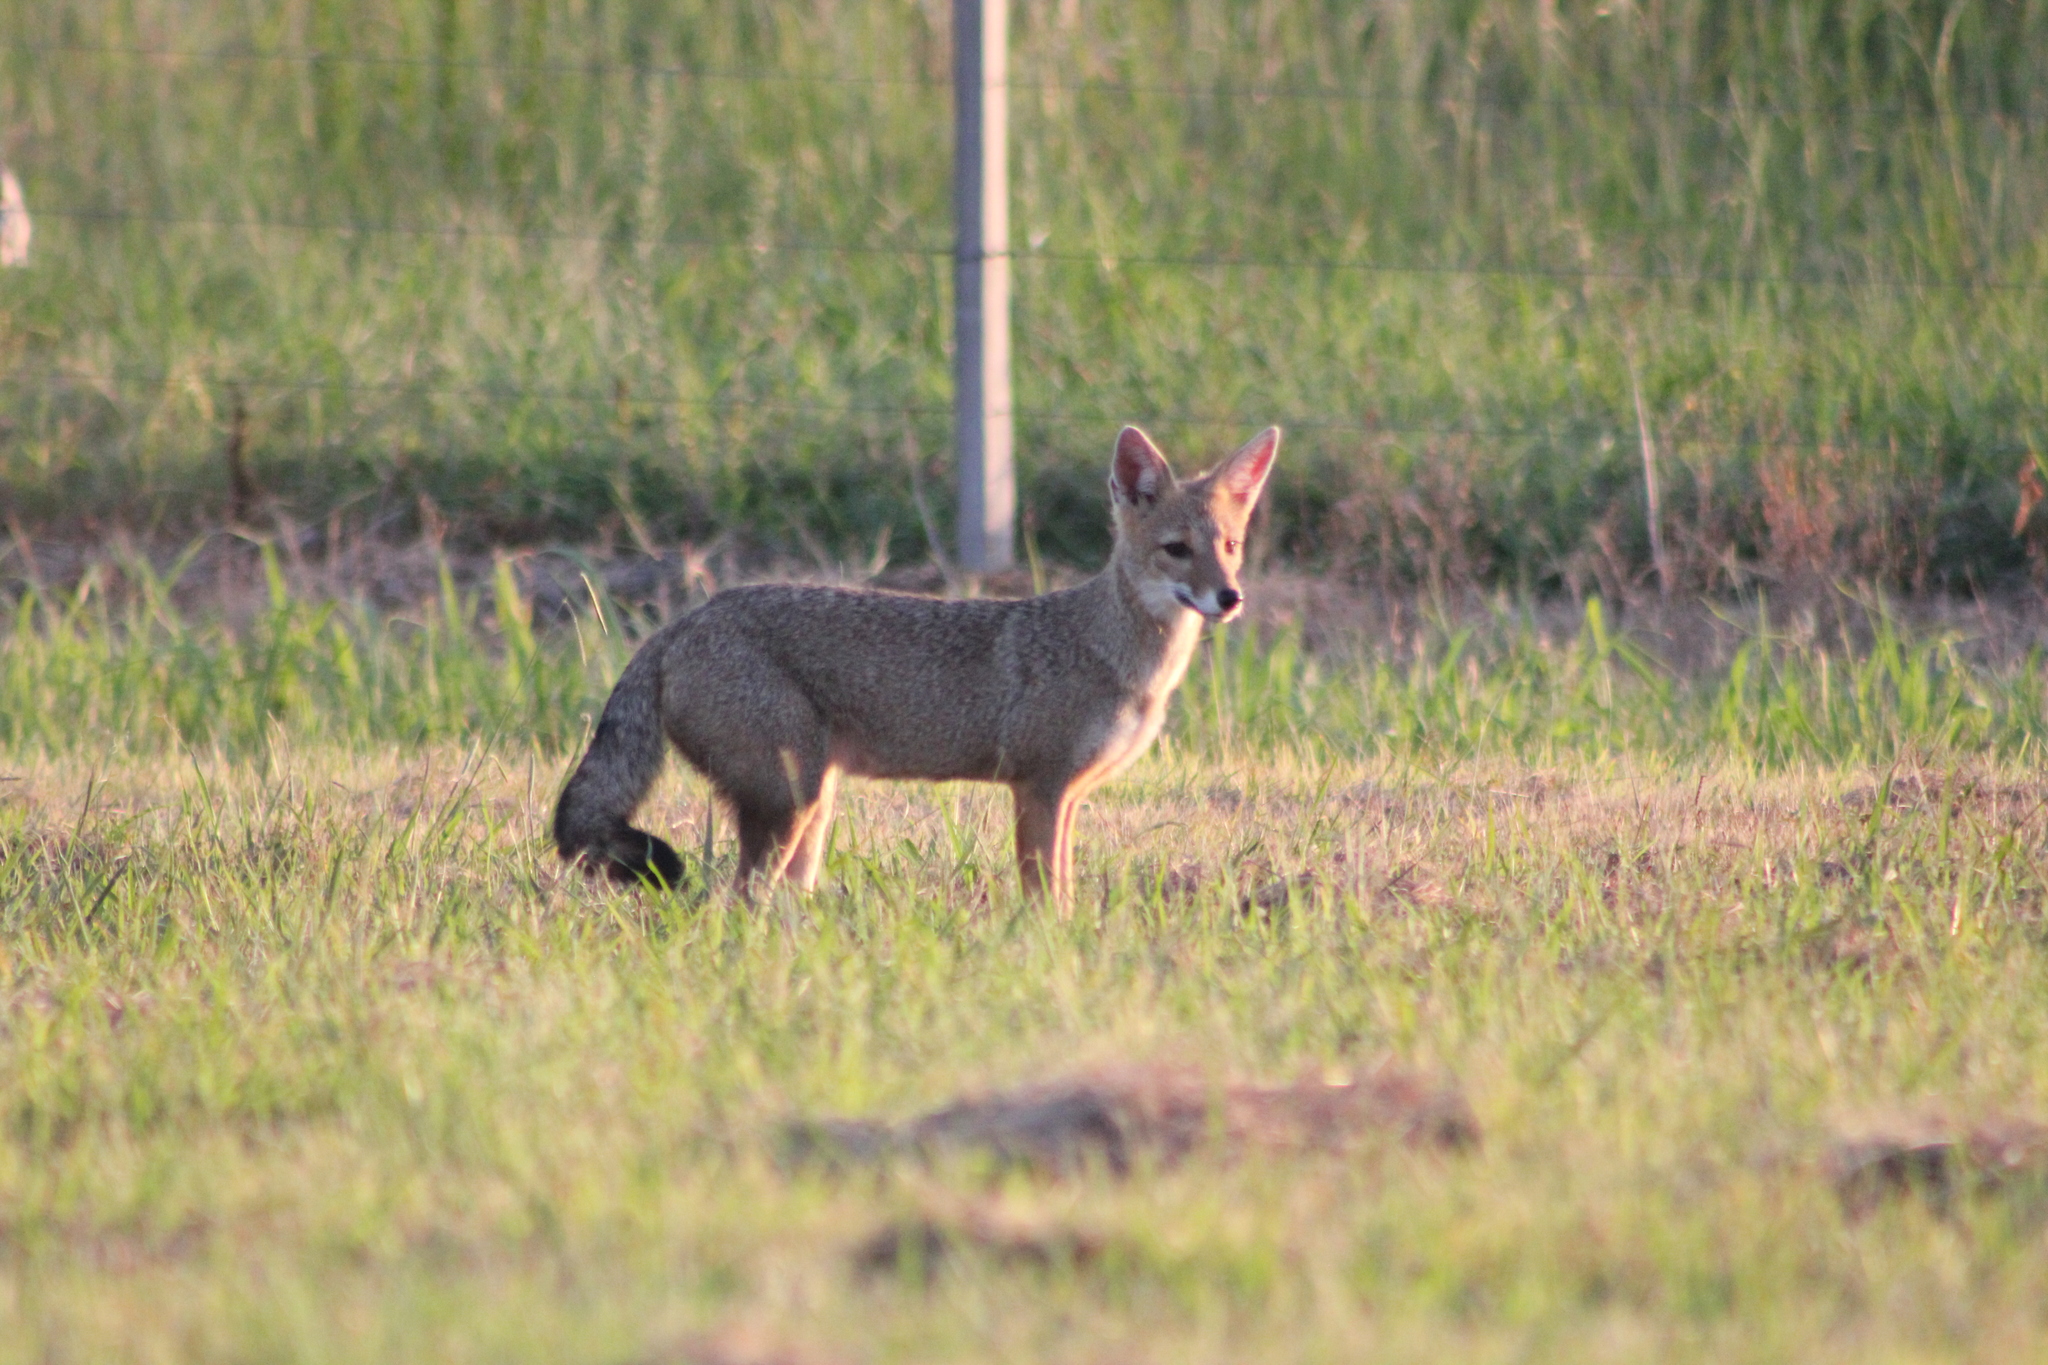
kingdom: Animalia
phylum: Chordata
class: Mammalia
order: Carnivora
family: Canidae
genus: Lycalopex
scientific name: Lycalopex gymnocercus
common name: Pampas fox
